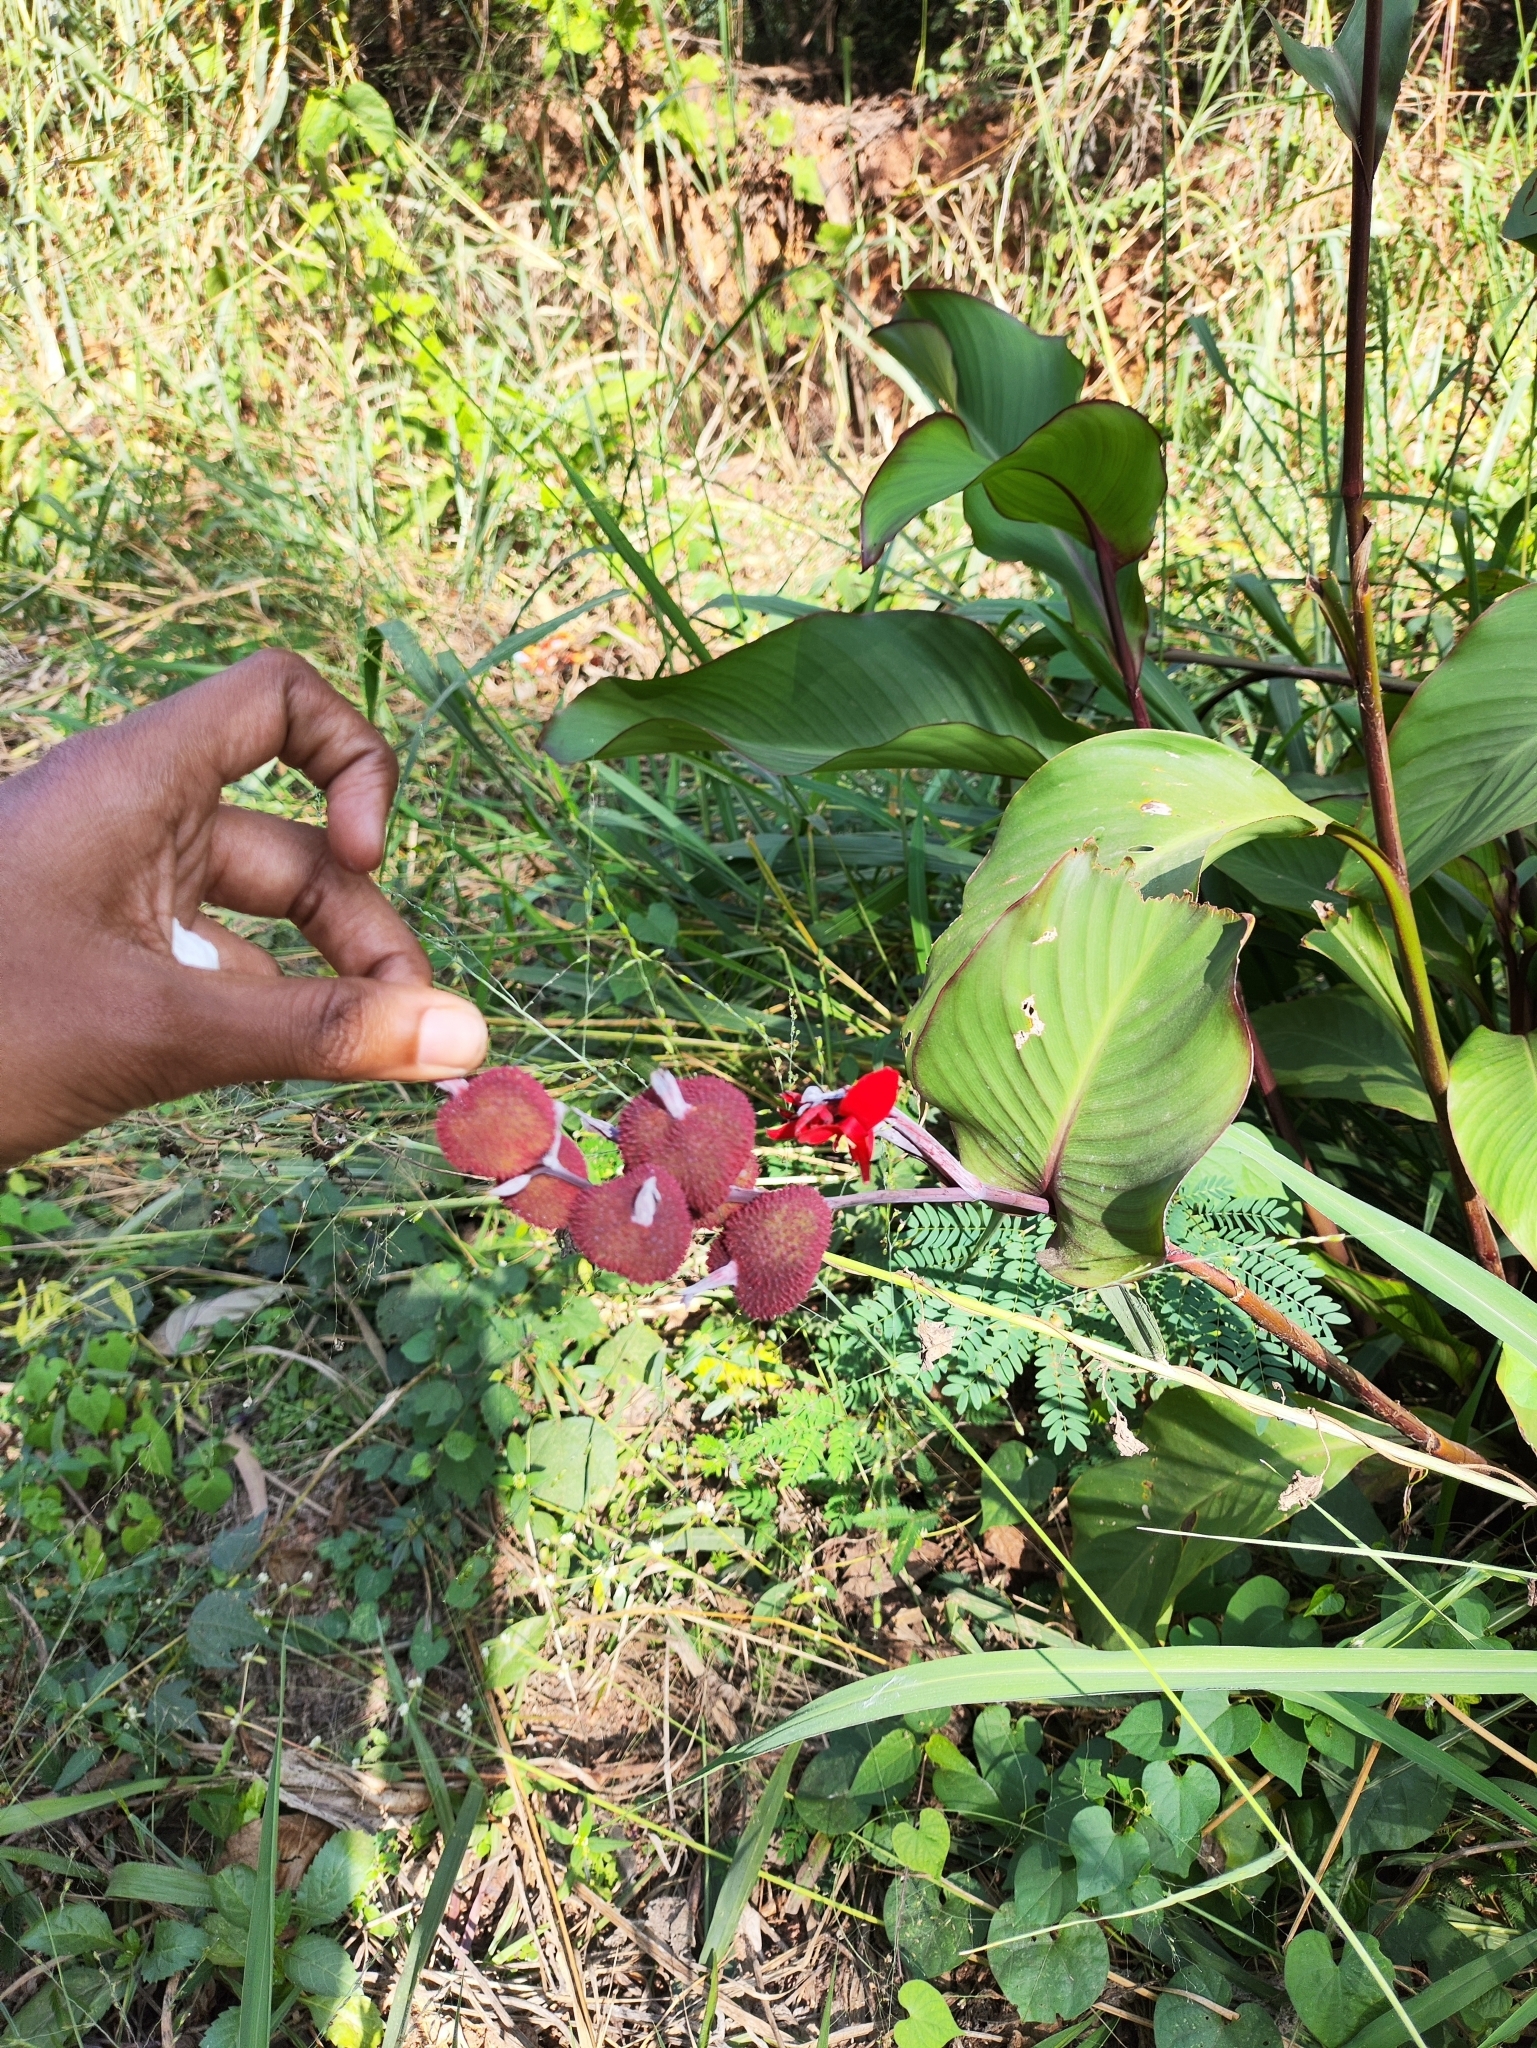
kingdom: Plantae
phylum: Tracheophyta
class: Liliopsida
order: Zingiberales
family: Cannaceae
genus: Canna
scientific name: Canna indica
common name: Indian shot
